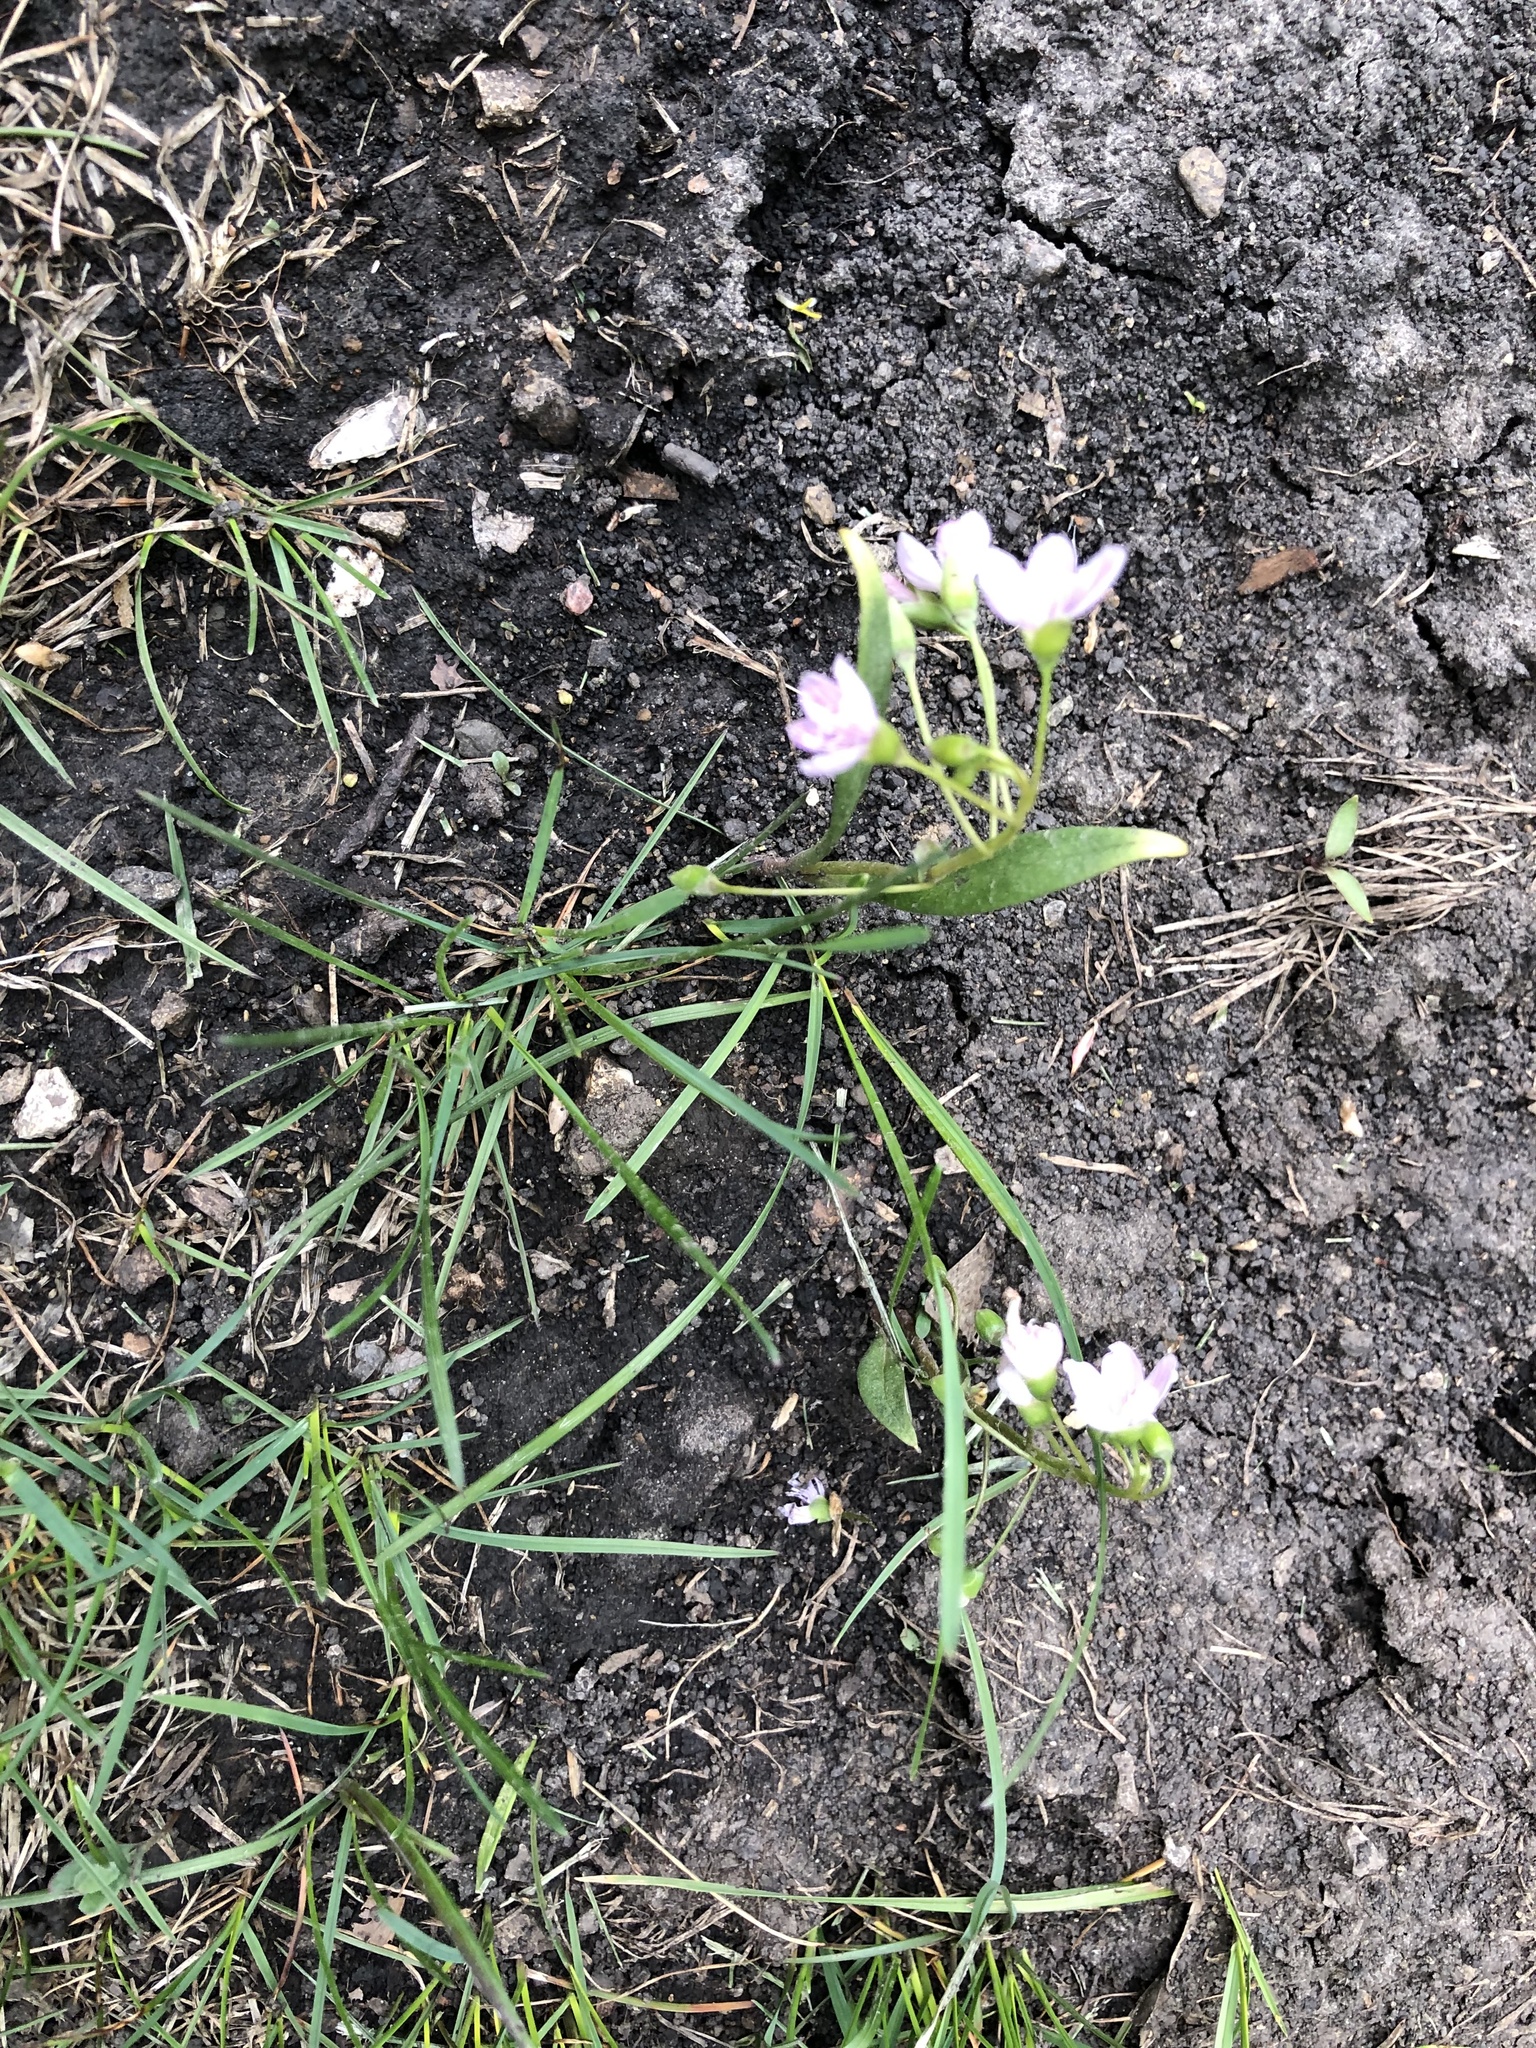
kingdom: Plantae
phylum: Tracheophyta
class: Magnoliopsida
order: Caryophyllales
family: Montiaceae
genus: Claytonia
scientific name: Claytonia virginica
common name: Virginia springbeauty
